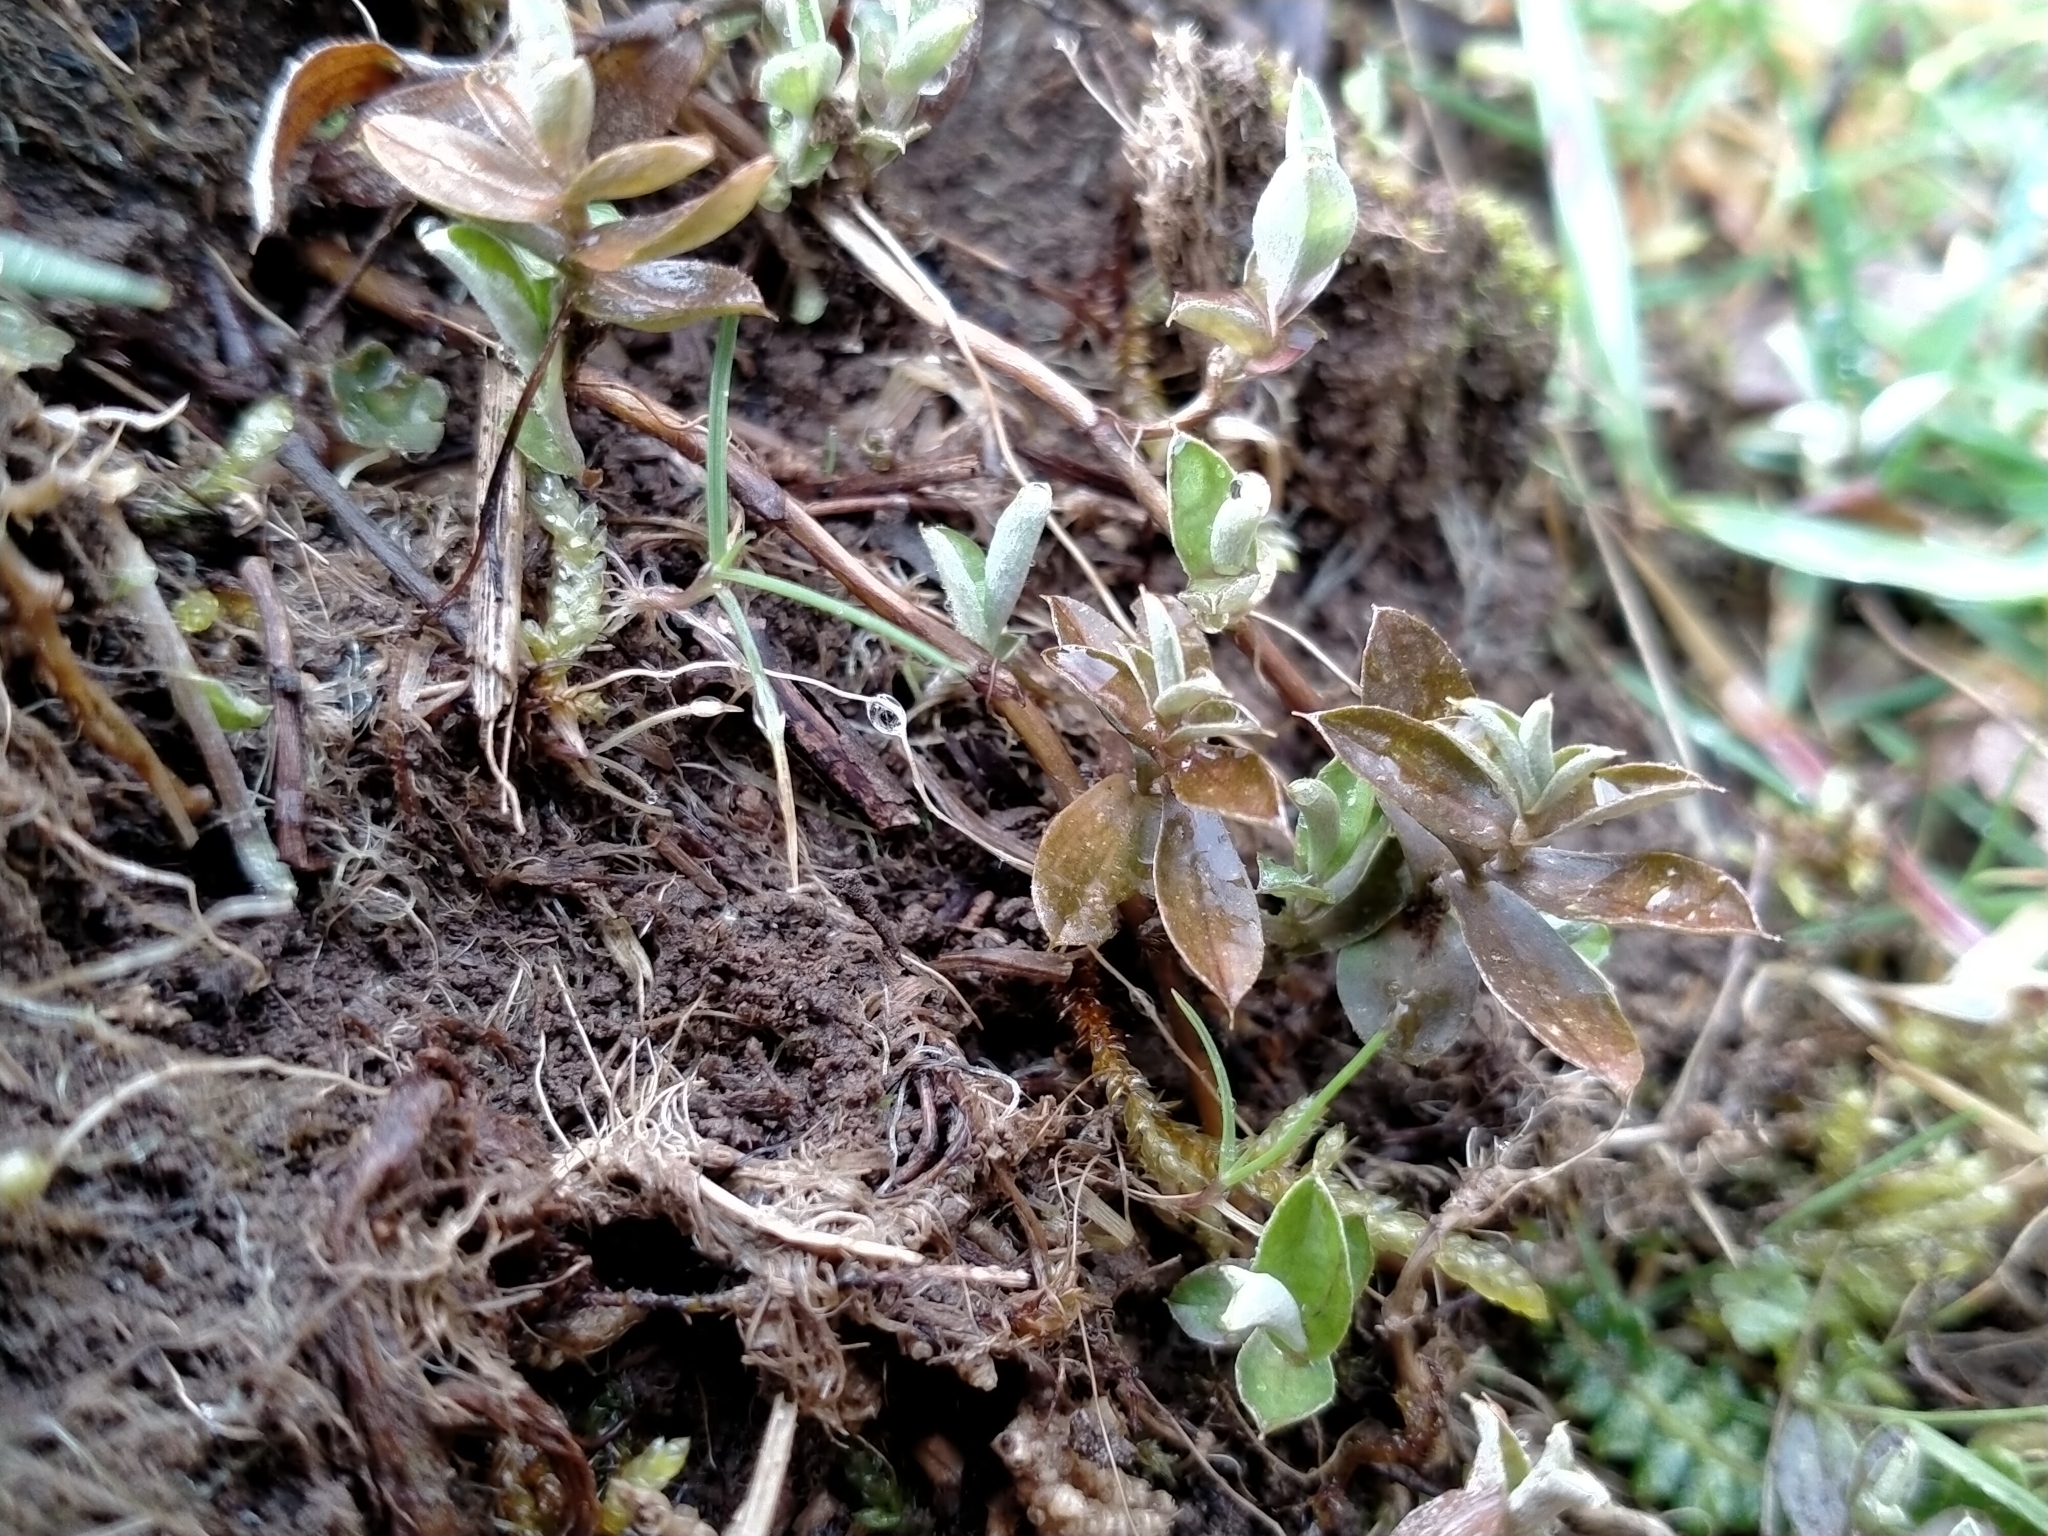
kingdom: Plantae
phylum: Tracheophyta
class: Magnoliopsida
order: Asterales
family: Asteraceae
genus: Helichrysum
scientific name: Helichrysum filicaule
